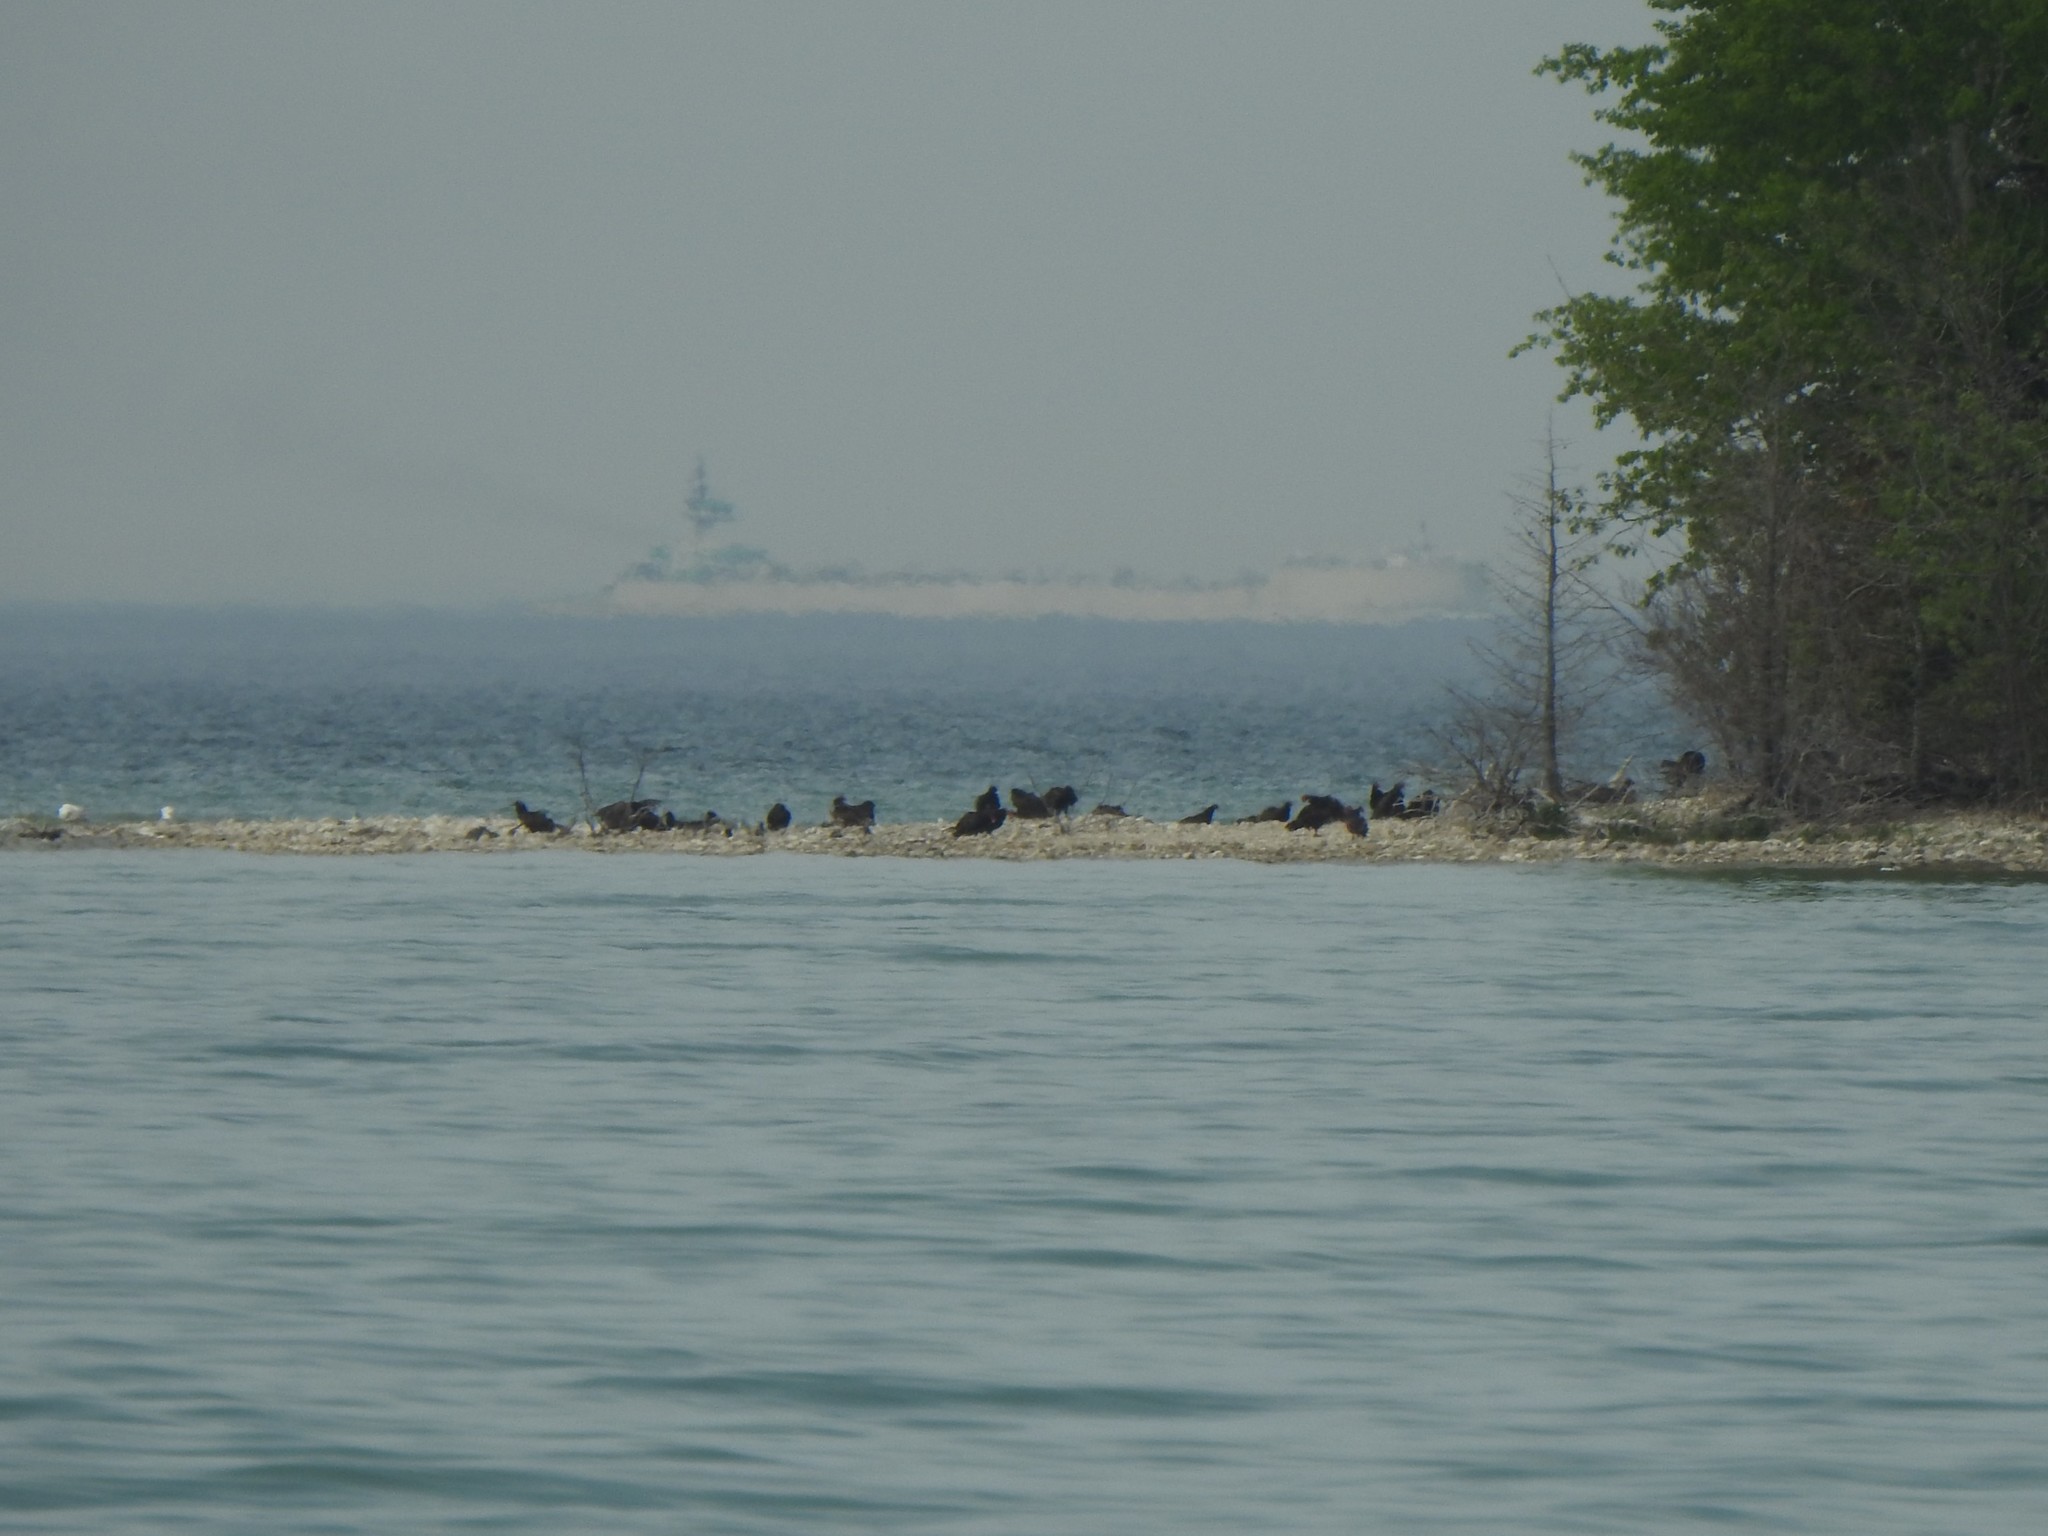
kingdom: Animalia
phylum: Chordata
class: Aves
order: Accipitriformes
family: Cathartidae
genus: Cathartes
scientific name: Cathartes aura
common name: Turkey vulture
